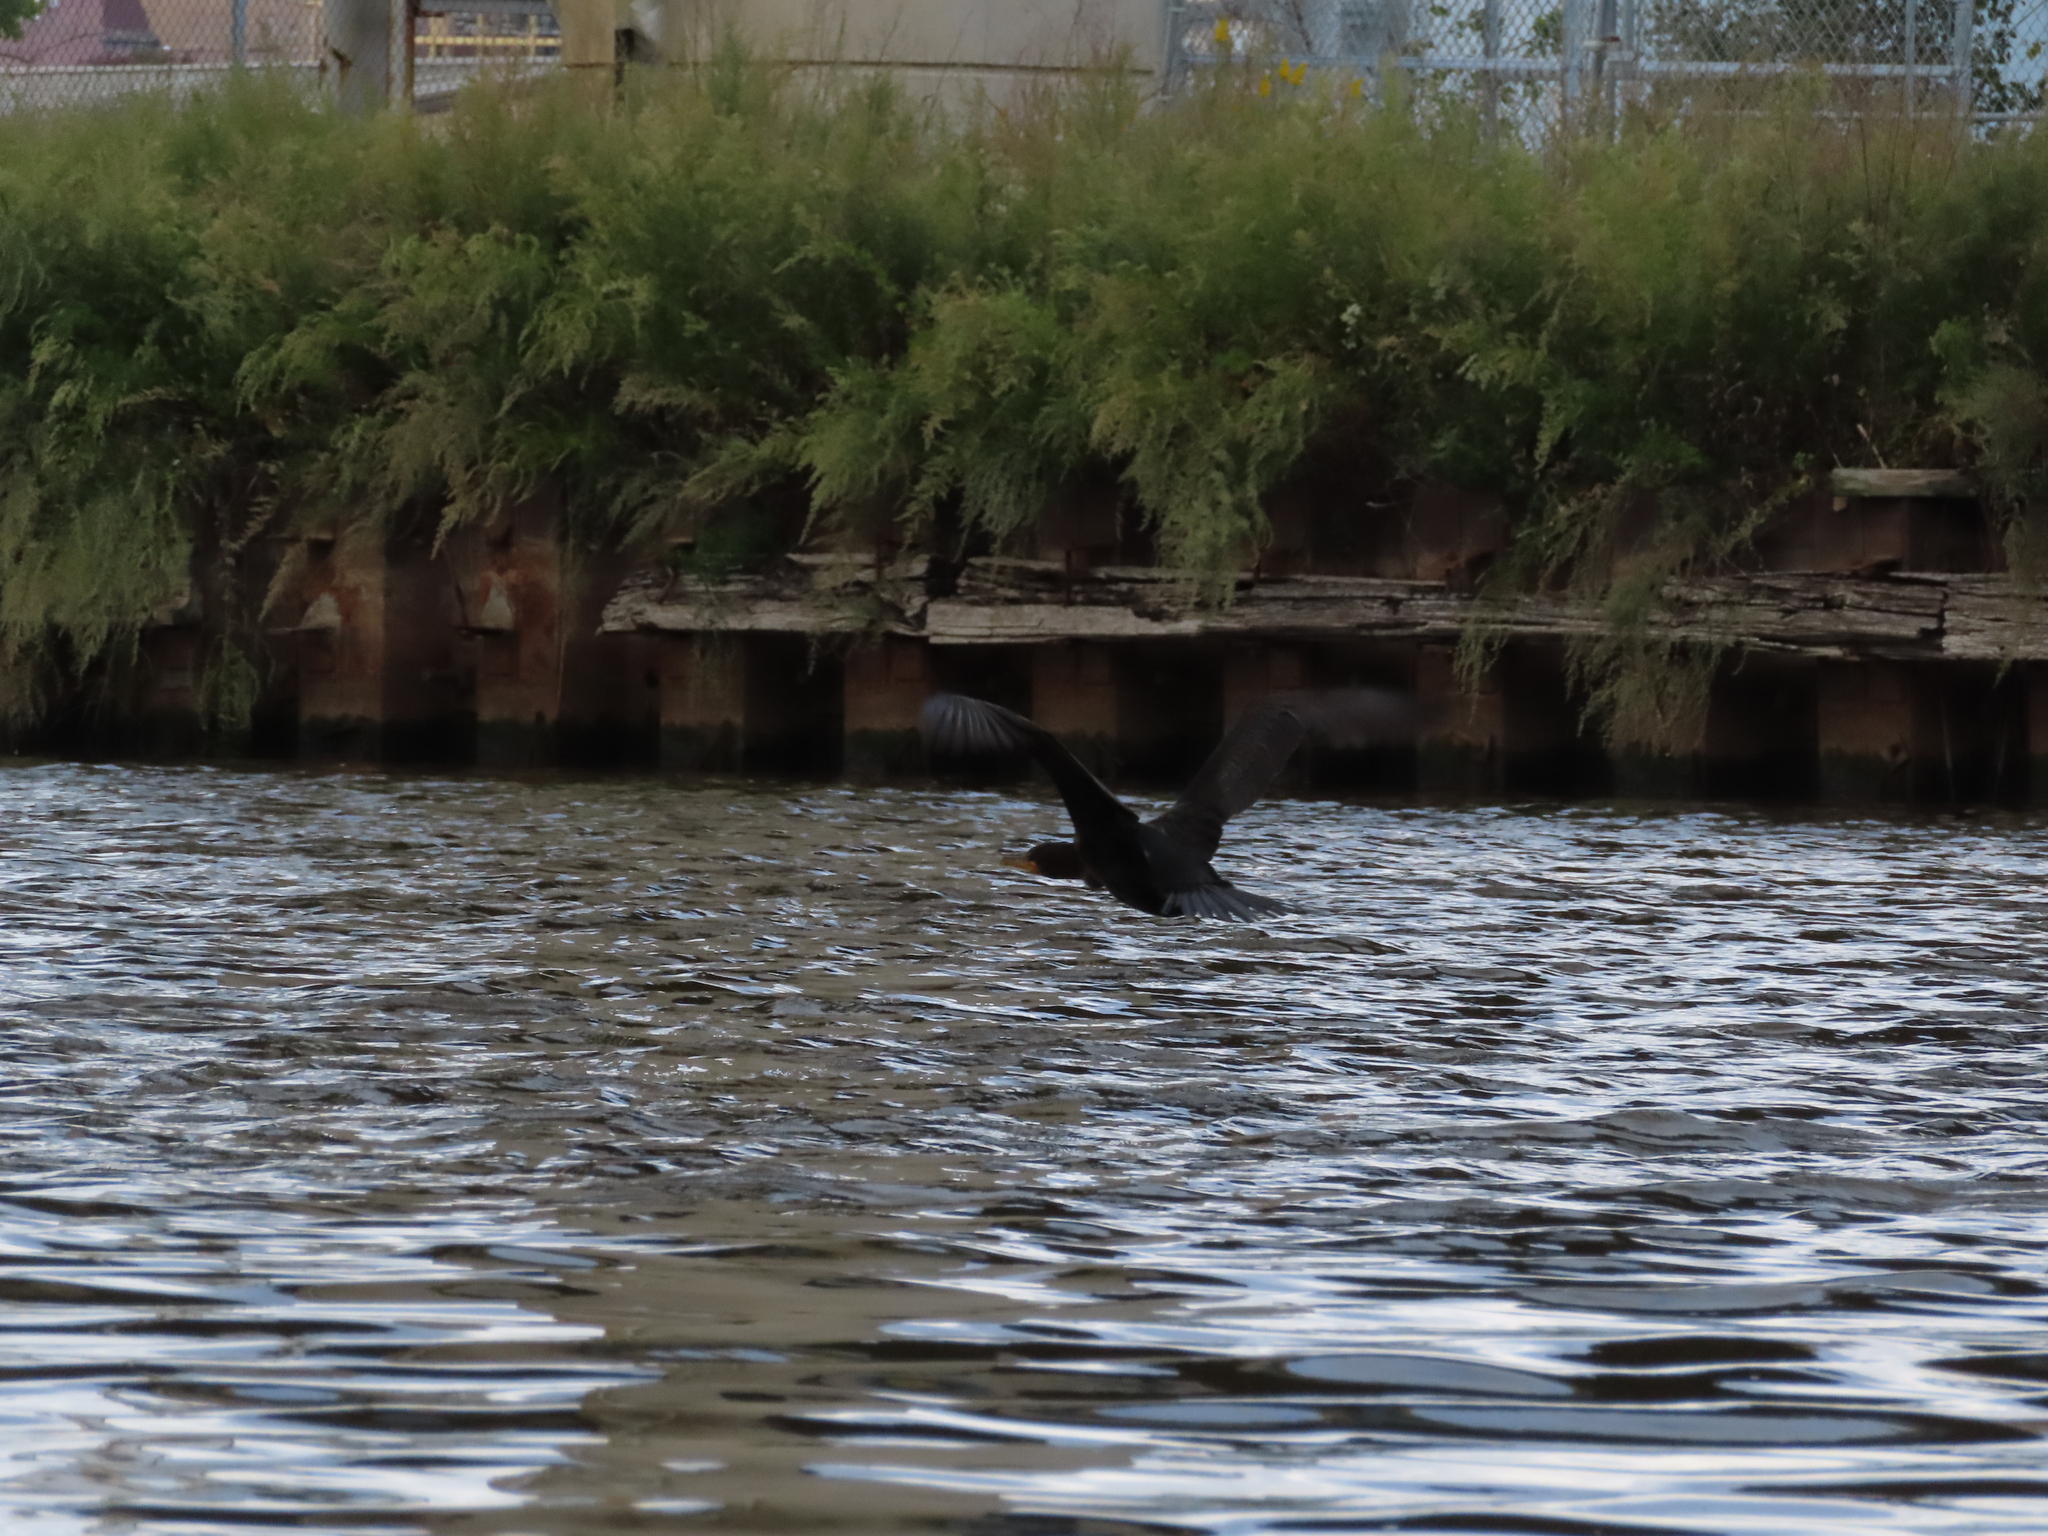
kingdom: Animalia
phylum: Chordata
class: Aves
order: Suliformes
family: Phalacrocoracidae
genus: Phalacrocorax
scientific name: Phalacrocorax auritus
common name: Double-crested cormorant
